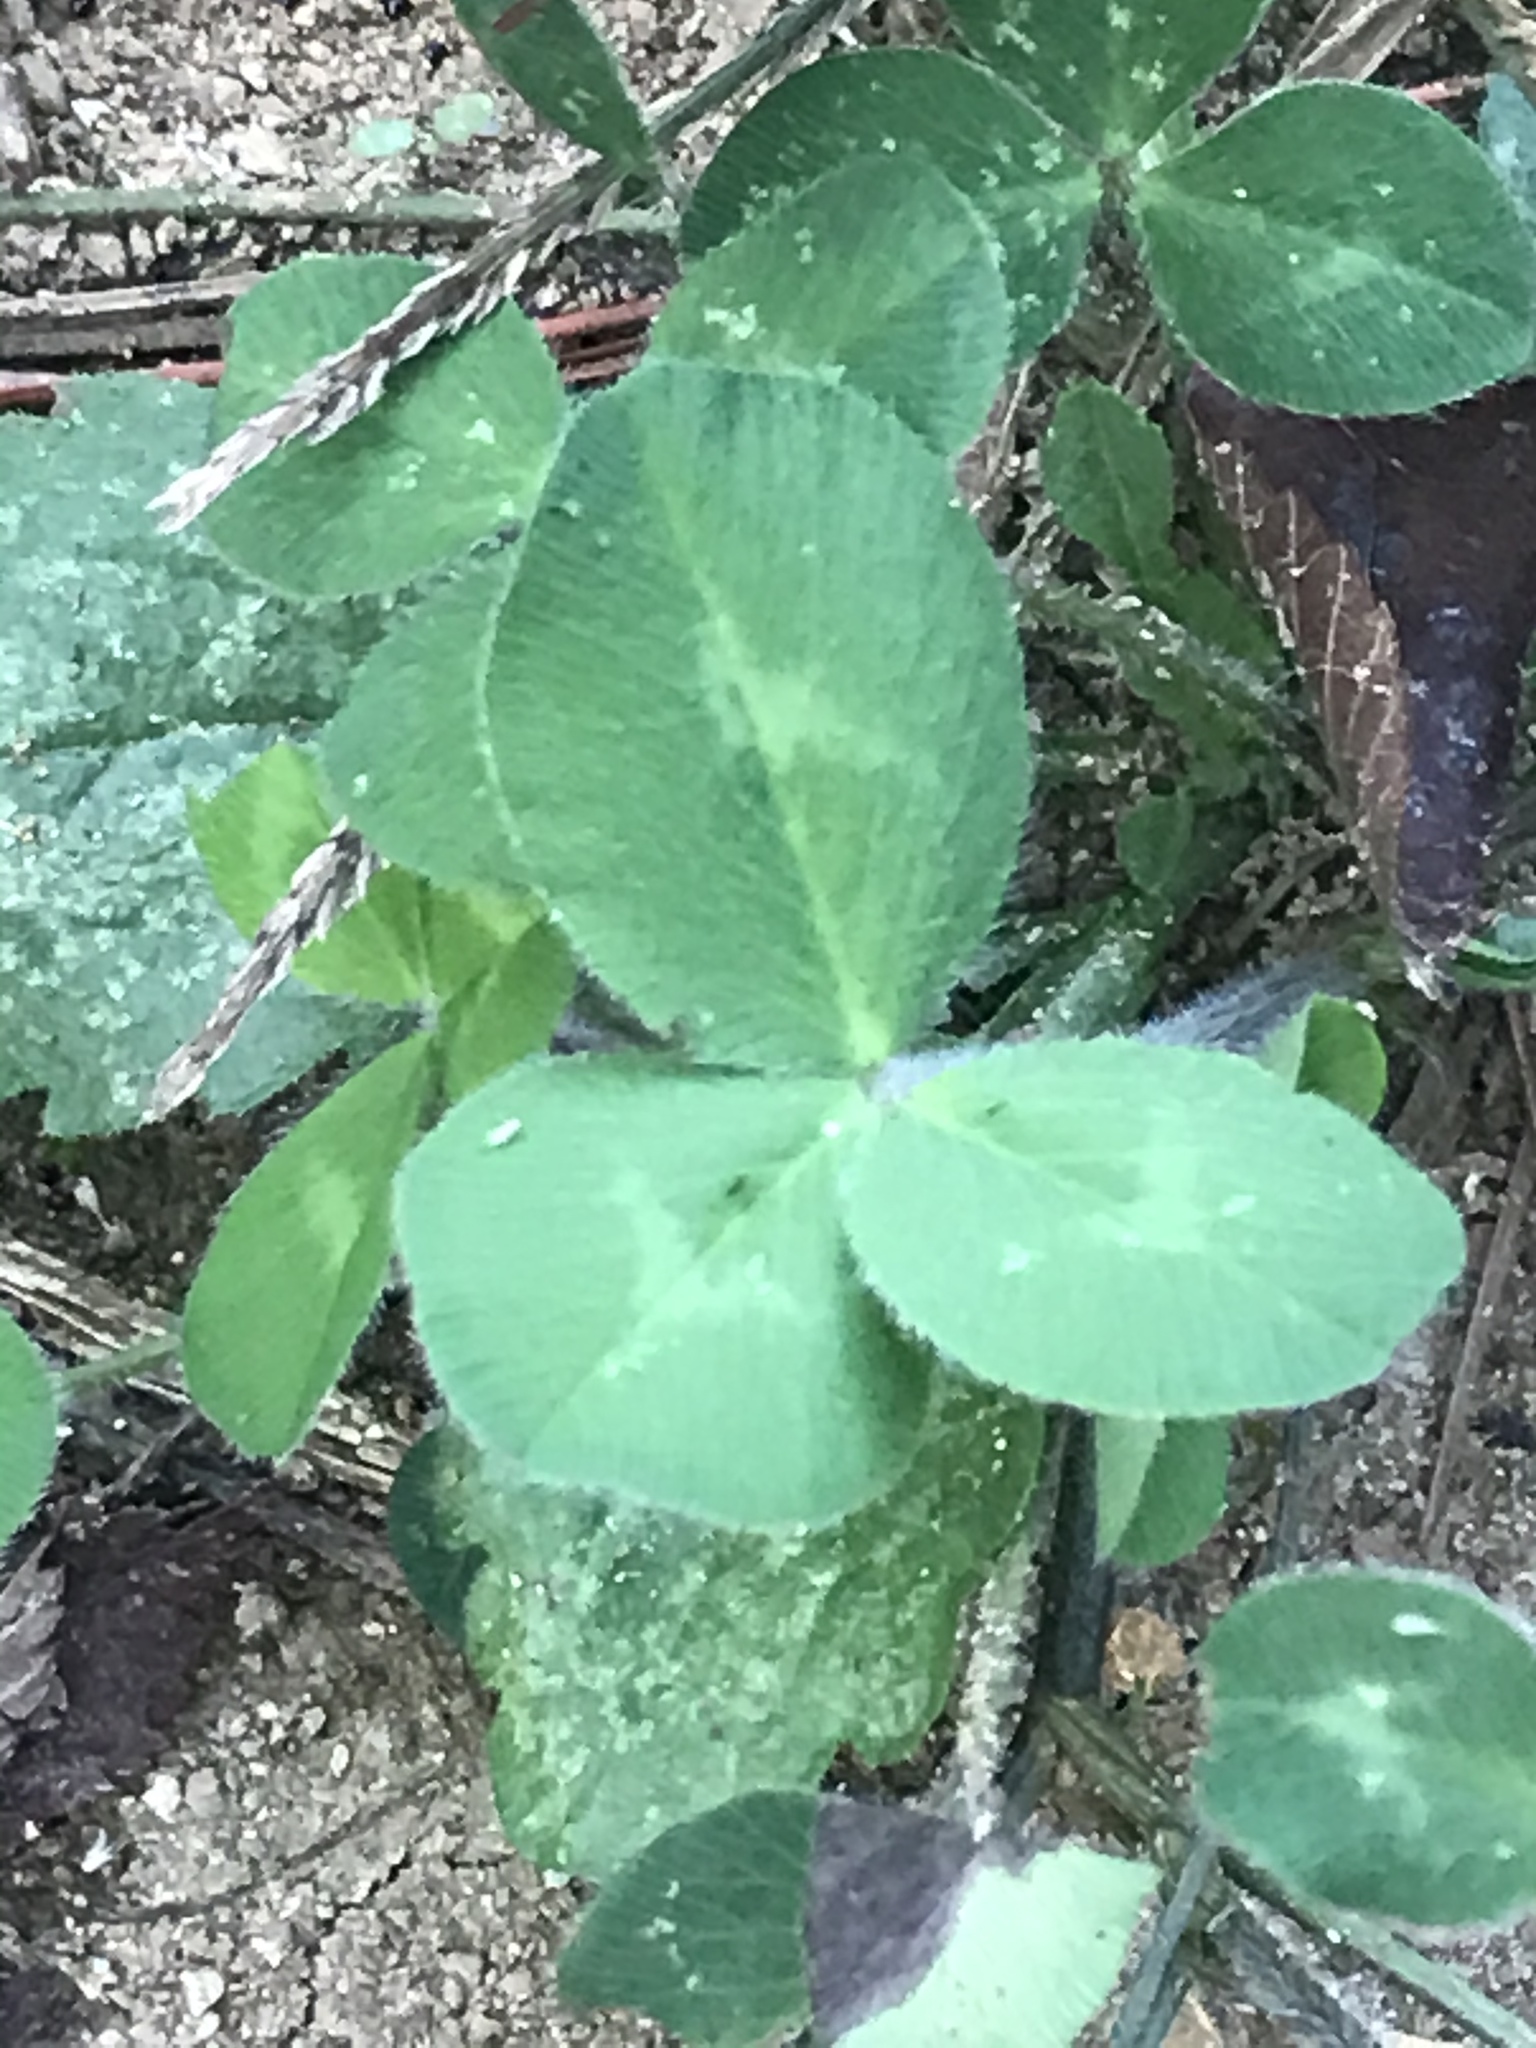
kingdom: Plantae
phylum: Tracheophyta
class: Magnoliopsida
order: Fabales
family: Fabaceae
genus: Trifolium
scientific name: Trifolium pratense
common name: Red clover
